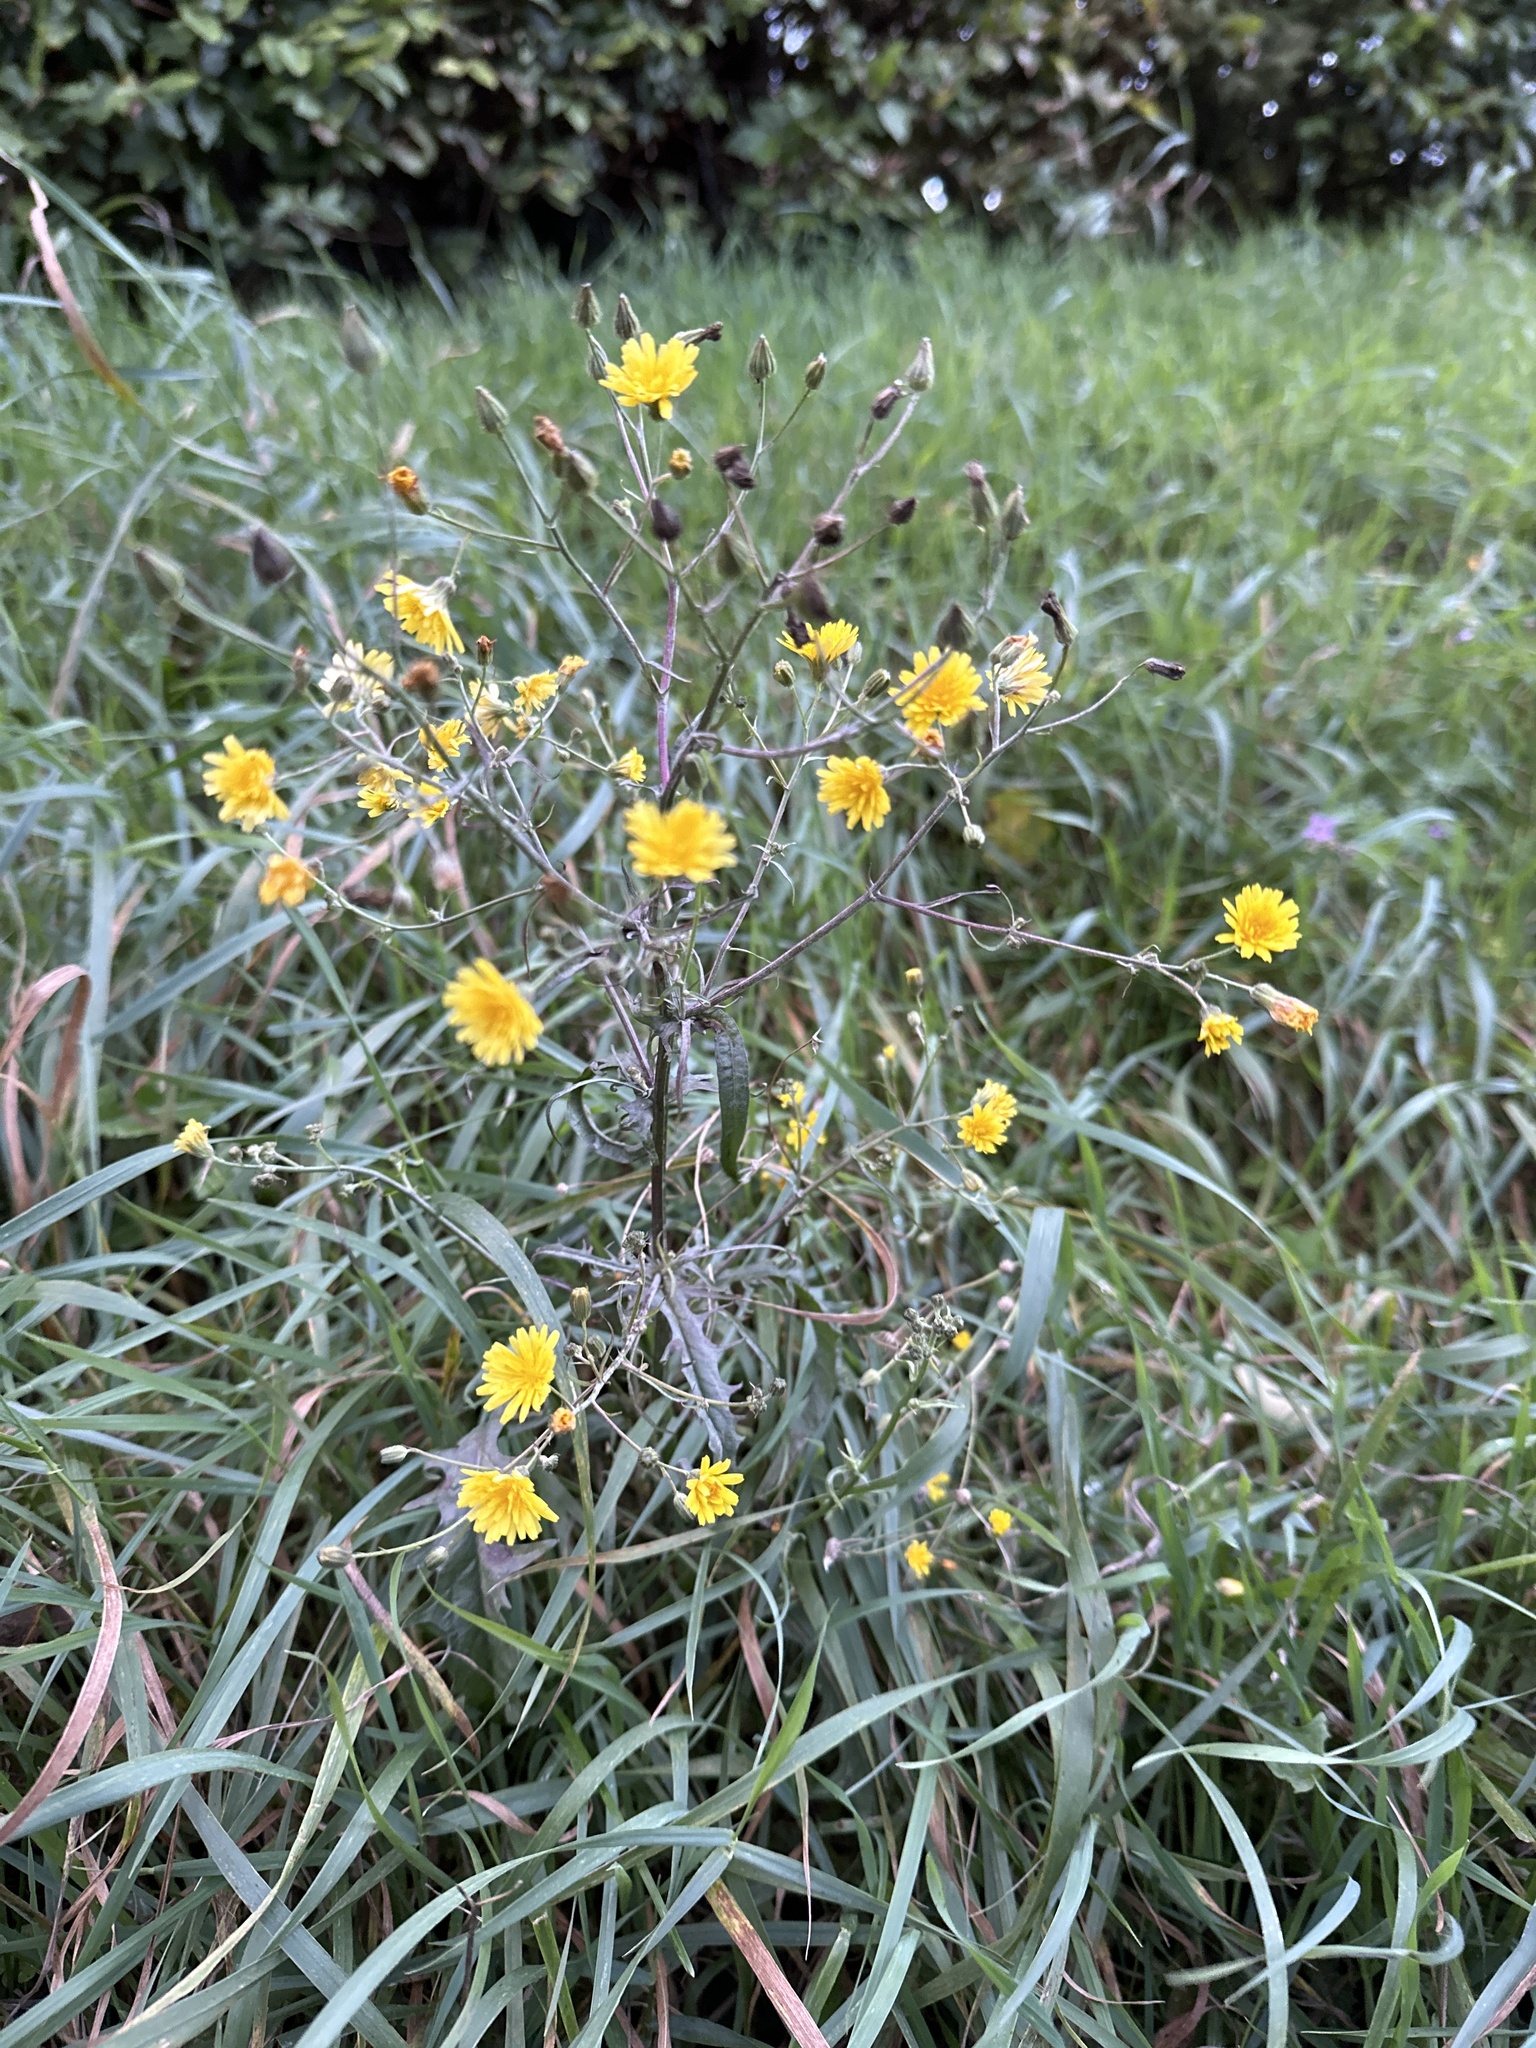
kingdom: Plantae
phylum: Tracheophyta
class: Magnoliopsida
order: Asterales
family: Asteraceae
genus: Crepis
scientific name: Crepis capillaris
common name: Smooth hawksbeard
